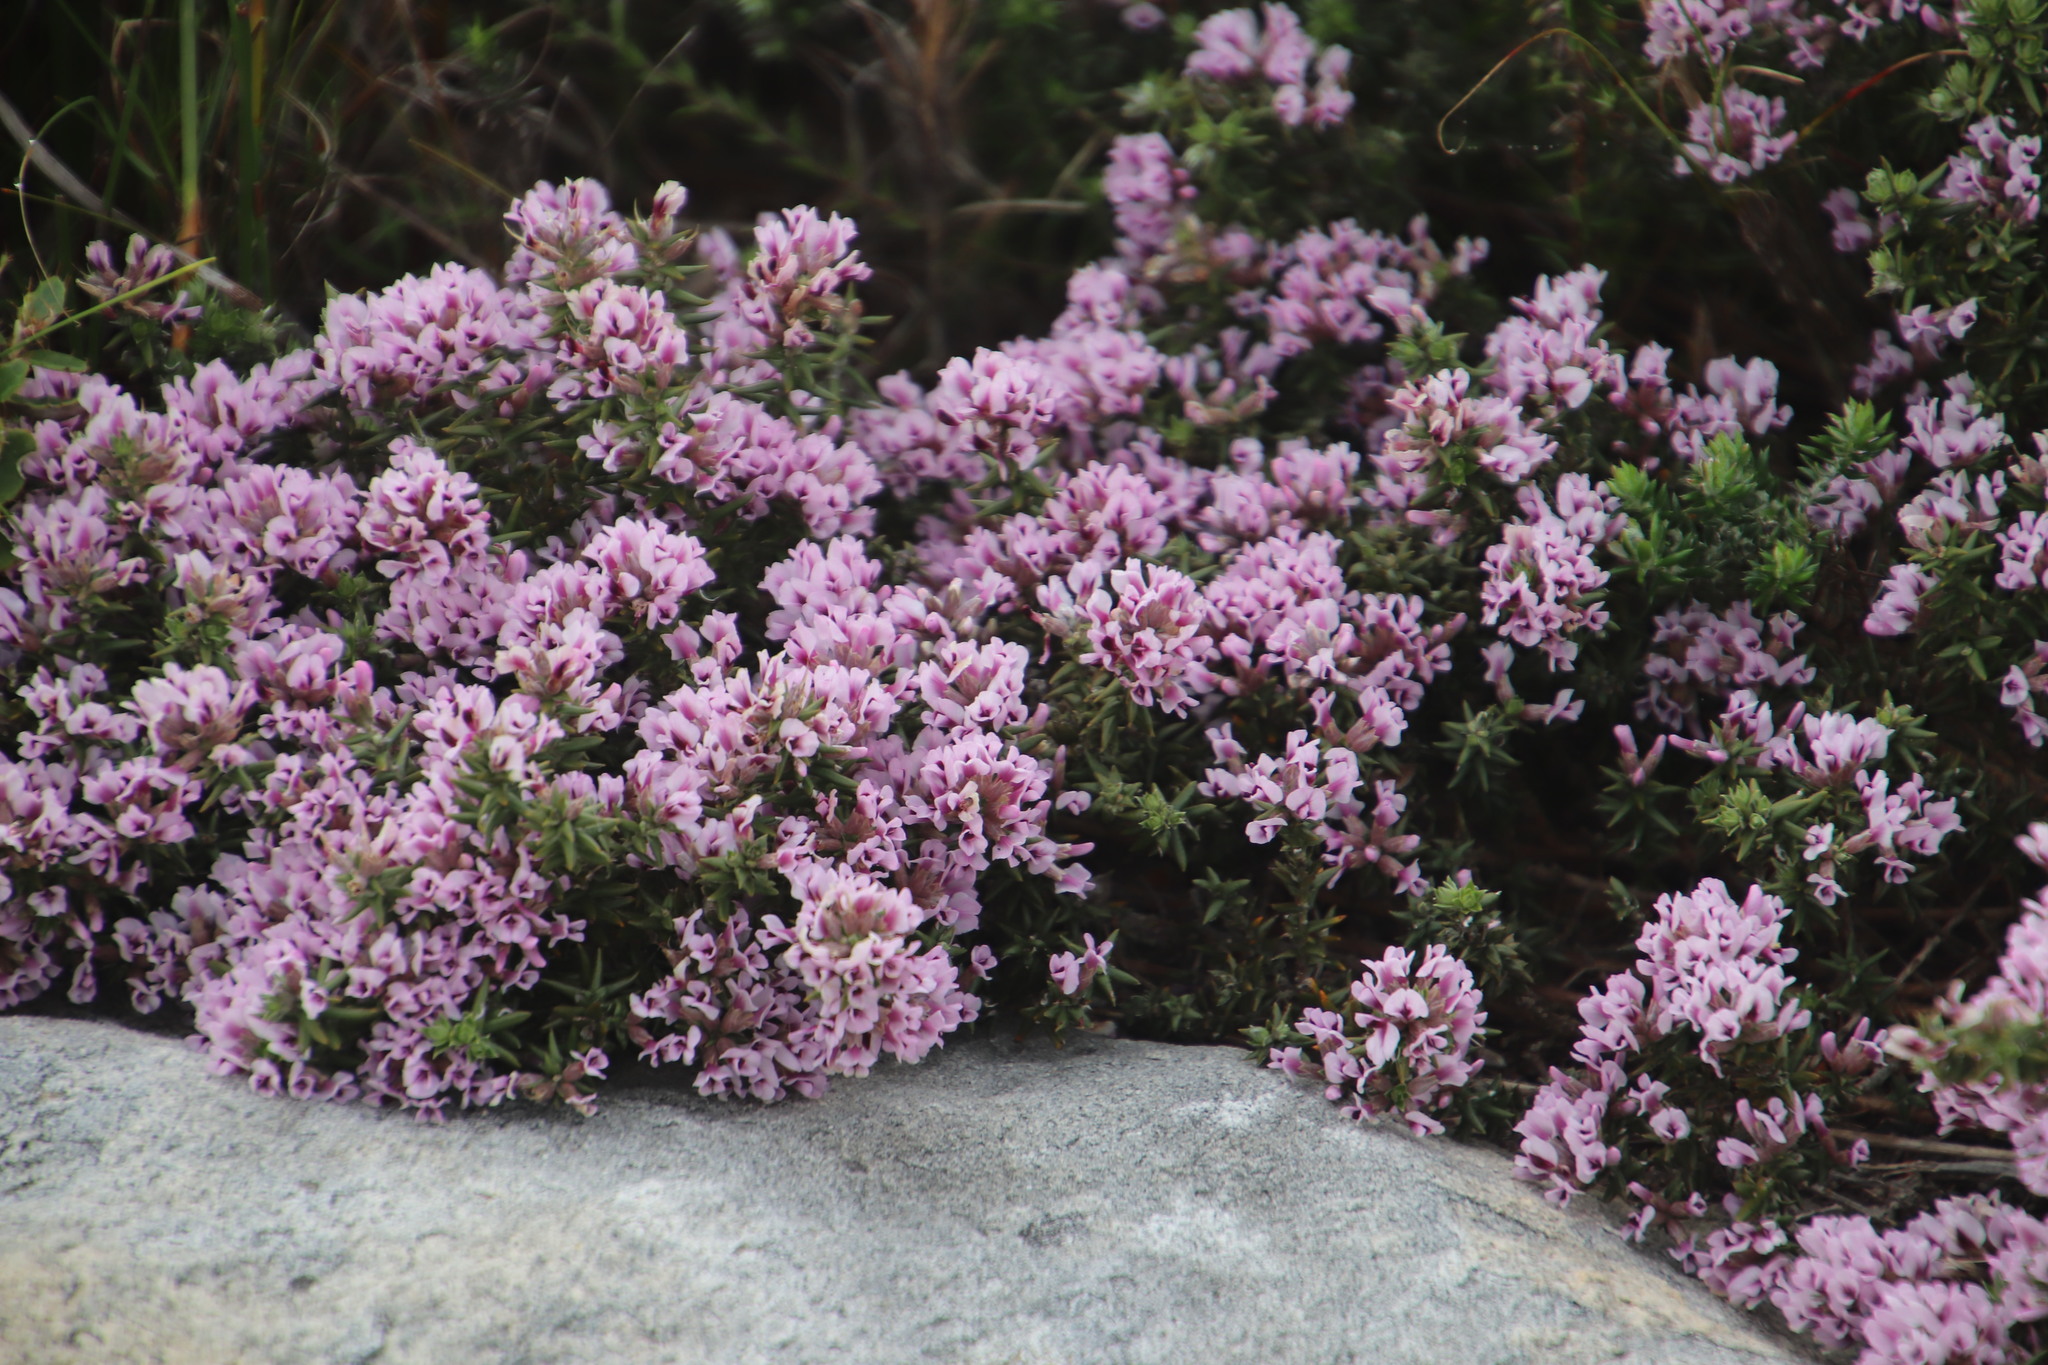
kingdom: Plantae
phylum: Tracheophyta
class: Magnoliopsida
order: Fabales
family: Fabaceae
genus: Amphithalea
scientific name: Amphithalea ericifolia
